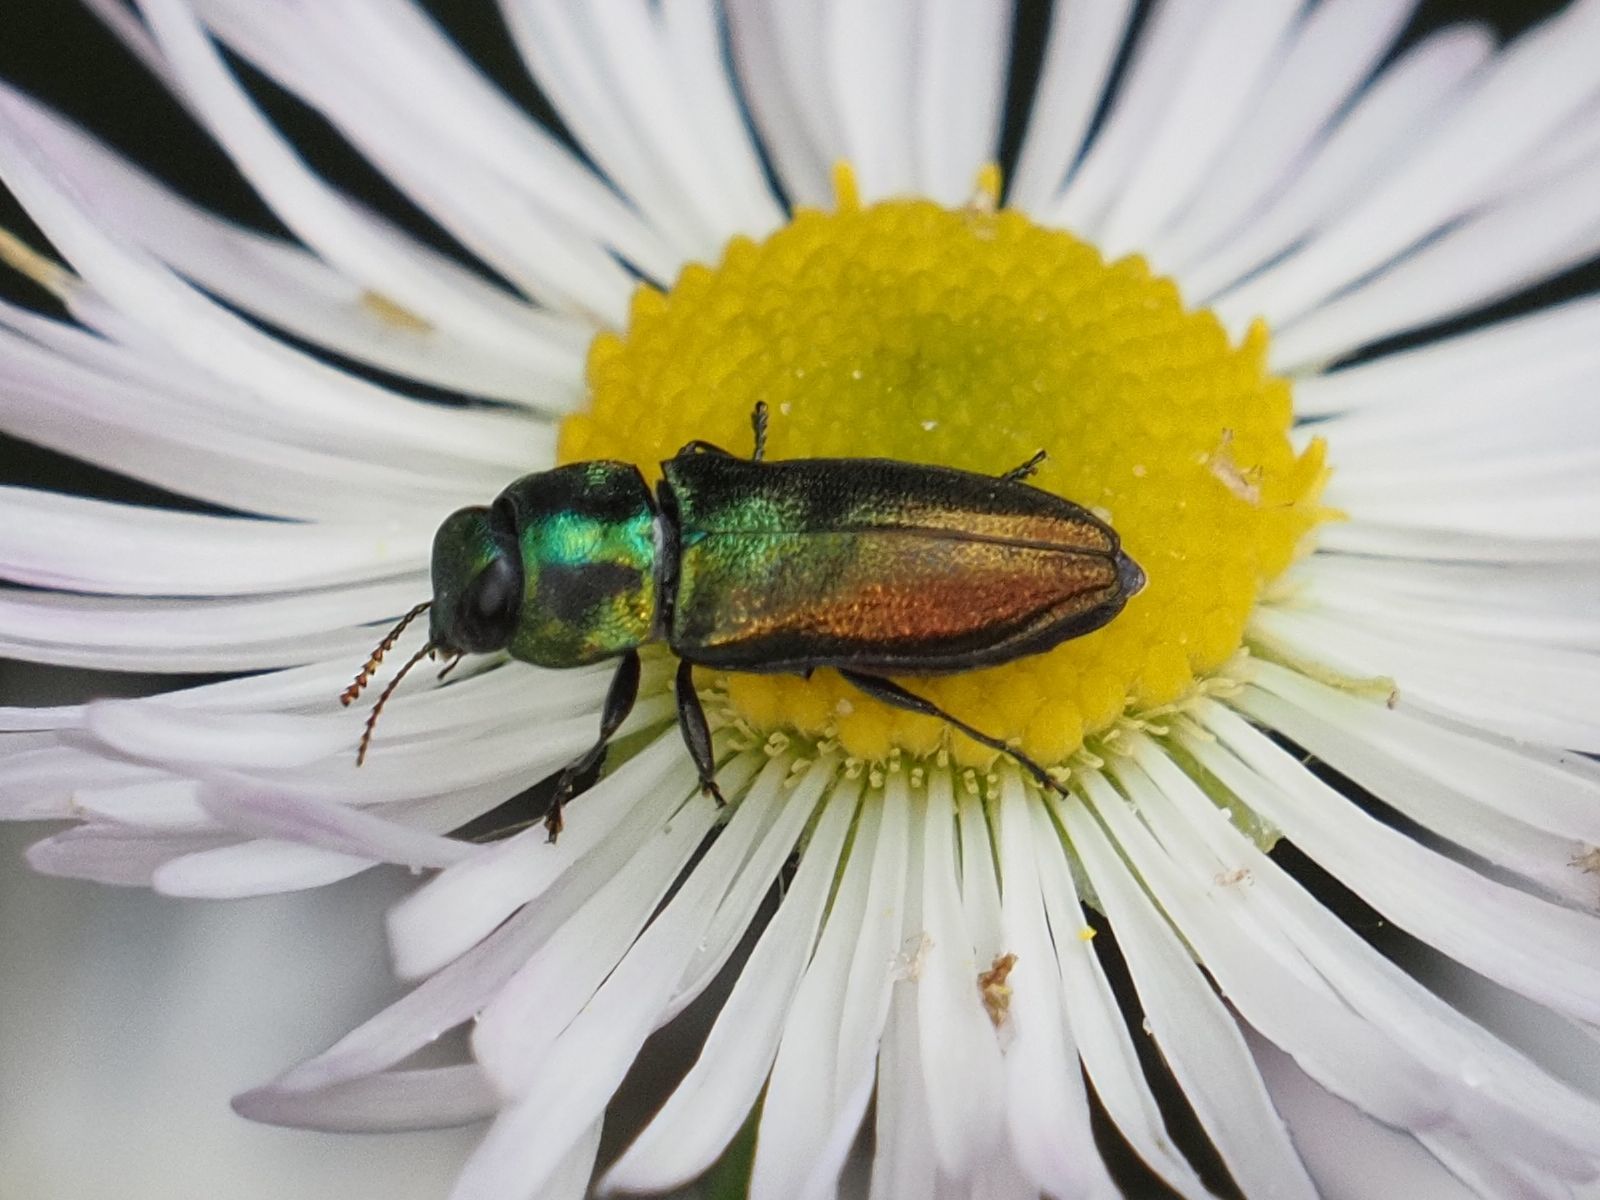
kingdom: Animalia
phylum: Arthropoda
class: Insecta
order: Coleoptera
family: Buprestidae
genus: Anthaxia
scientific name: Anthaxia podolica
